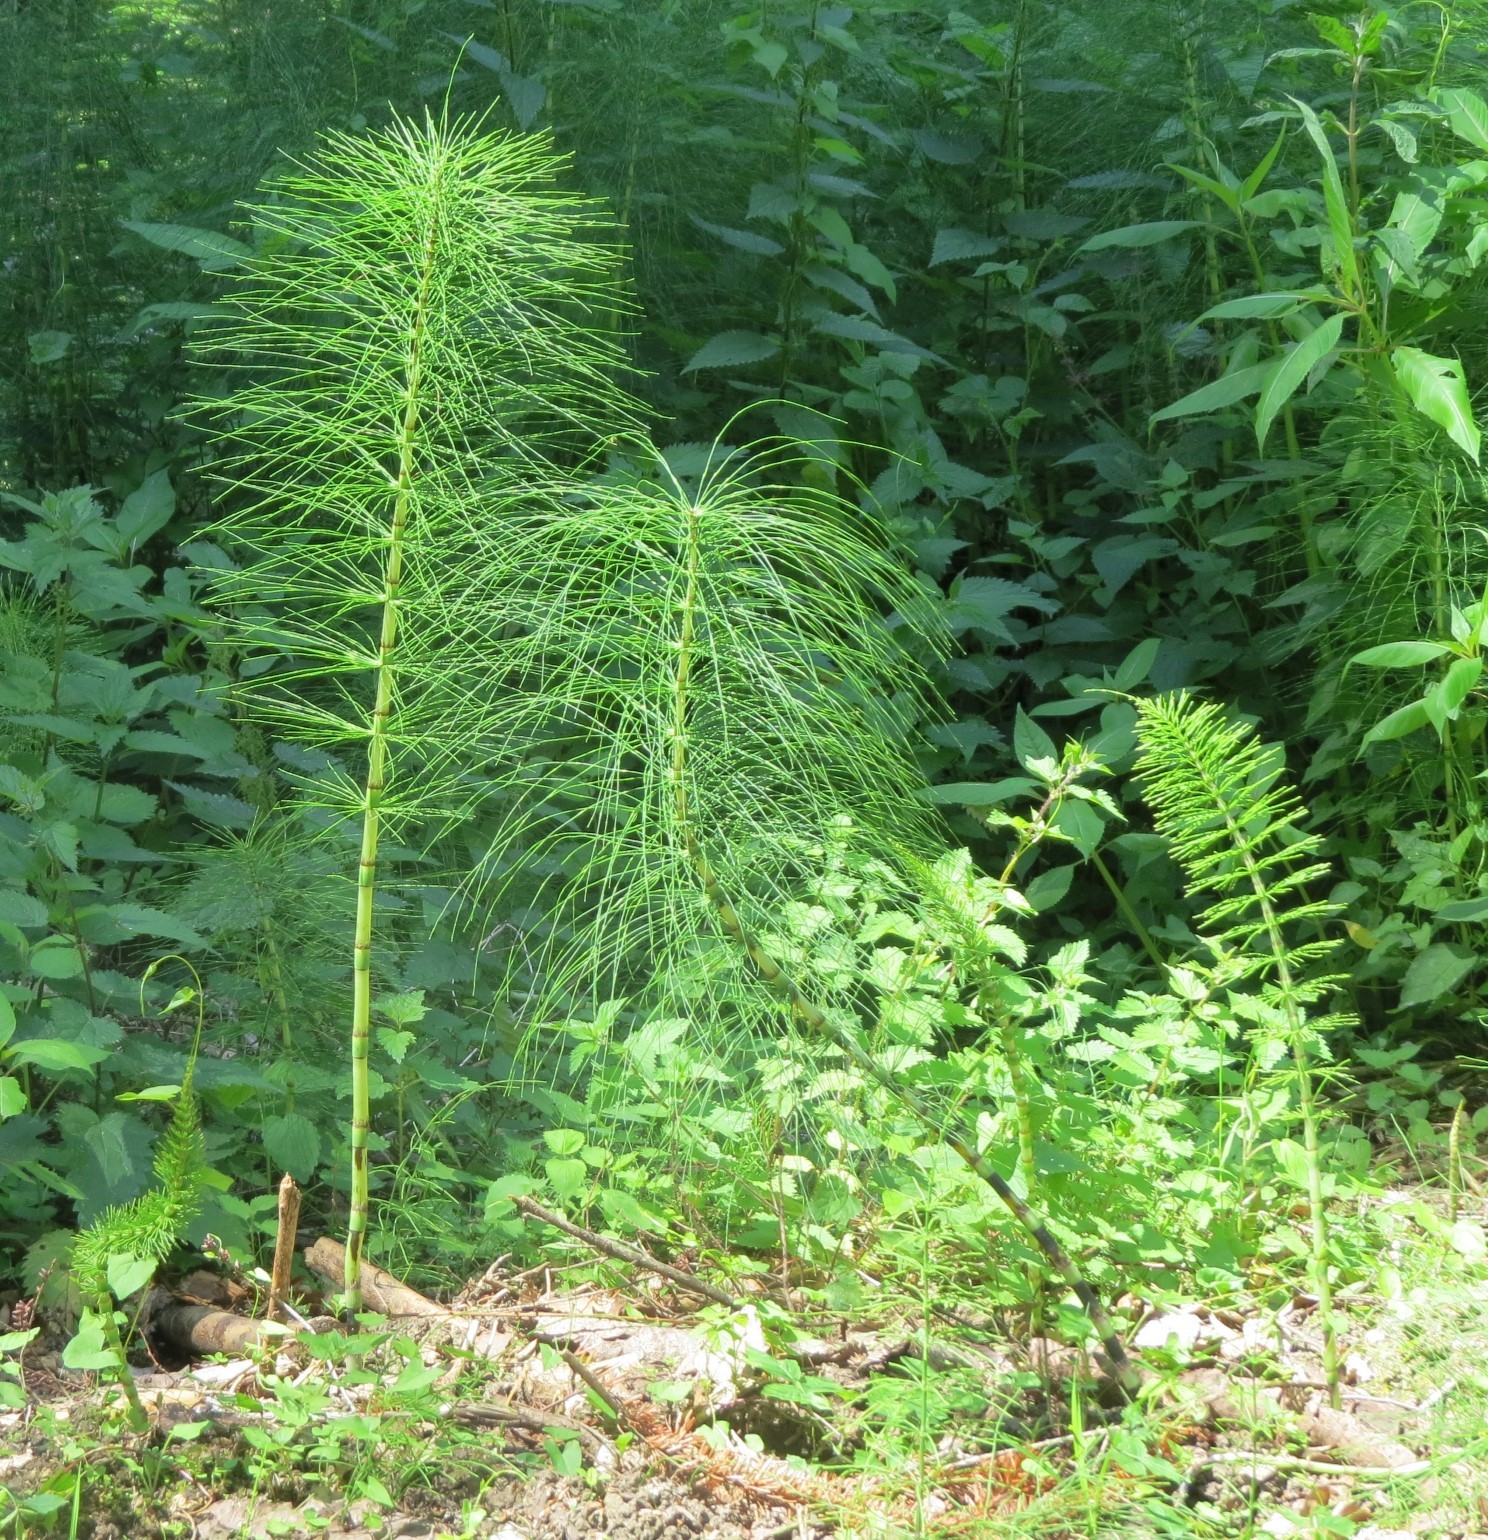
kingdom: Plantae
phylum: Tracheophyta
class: Polypodiopsida
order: Equisetales
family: Equisetaceae
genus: Equisetum
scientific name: Equisetum telmateia
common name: Great horsetail
